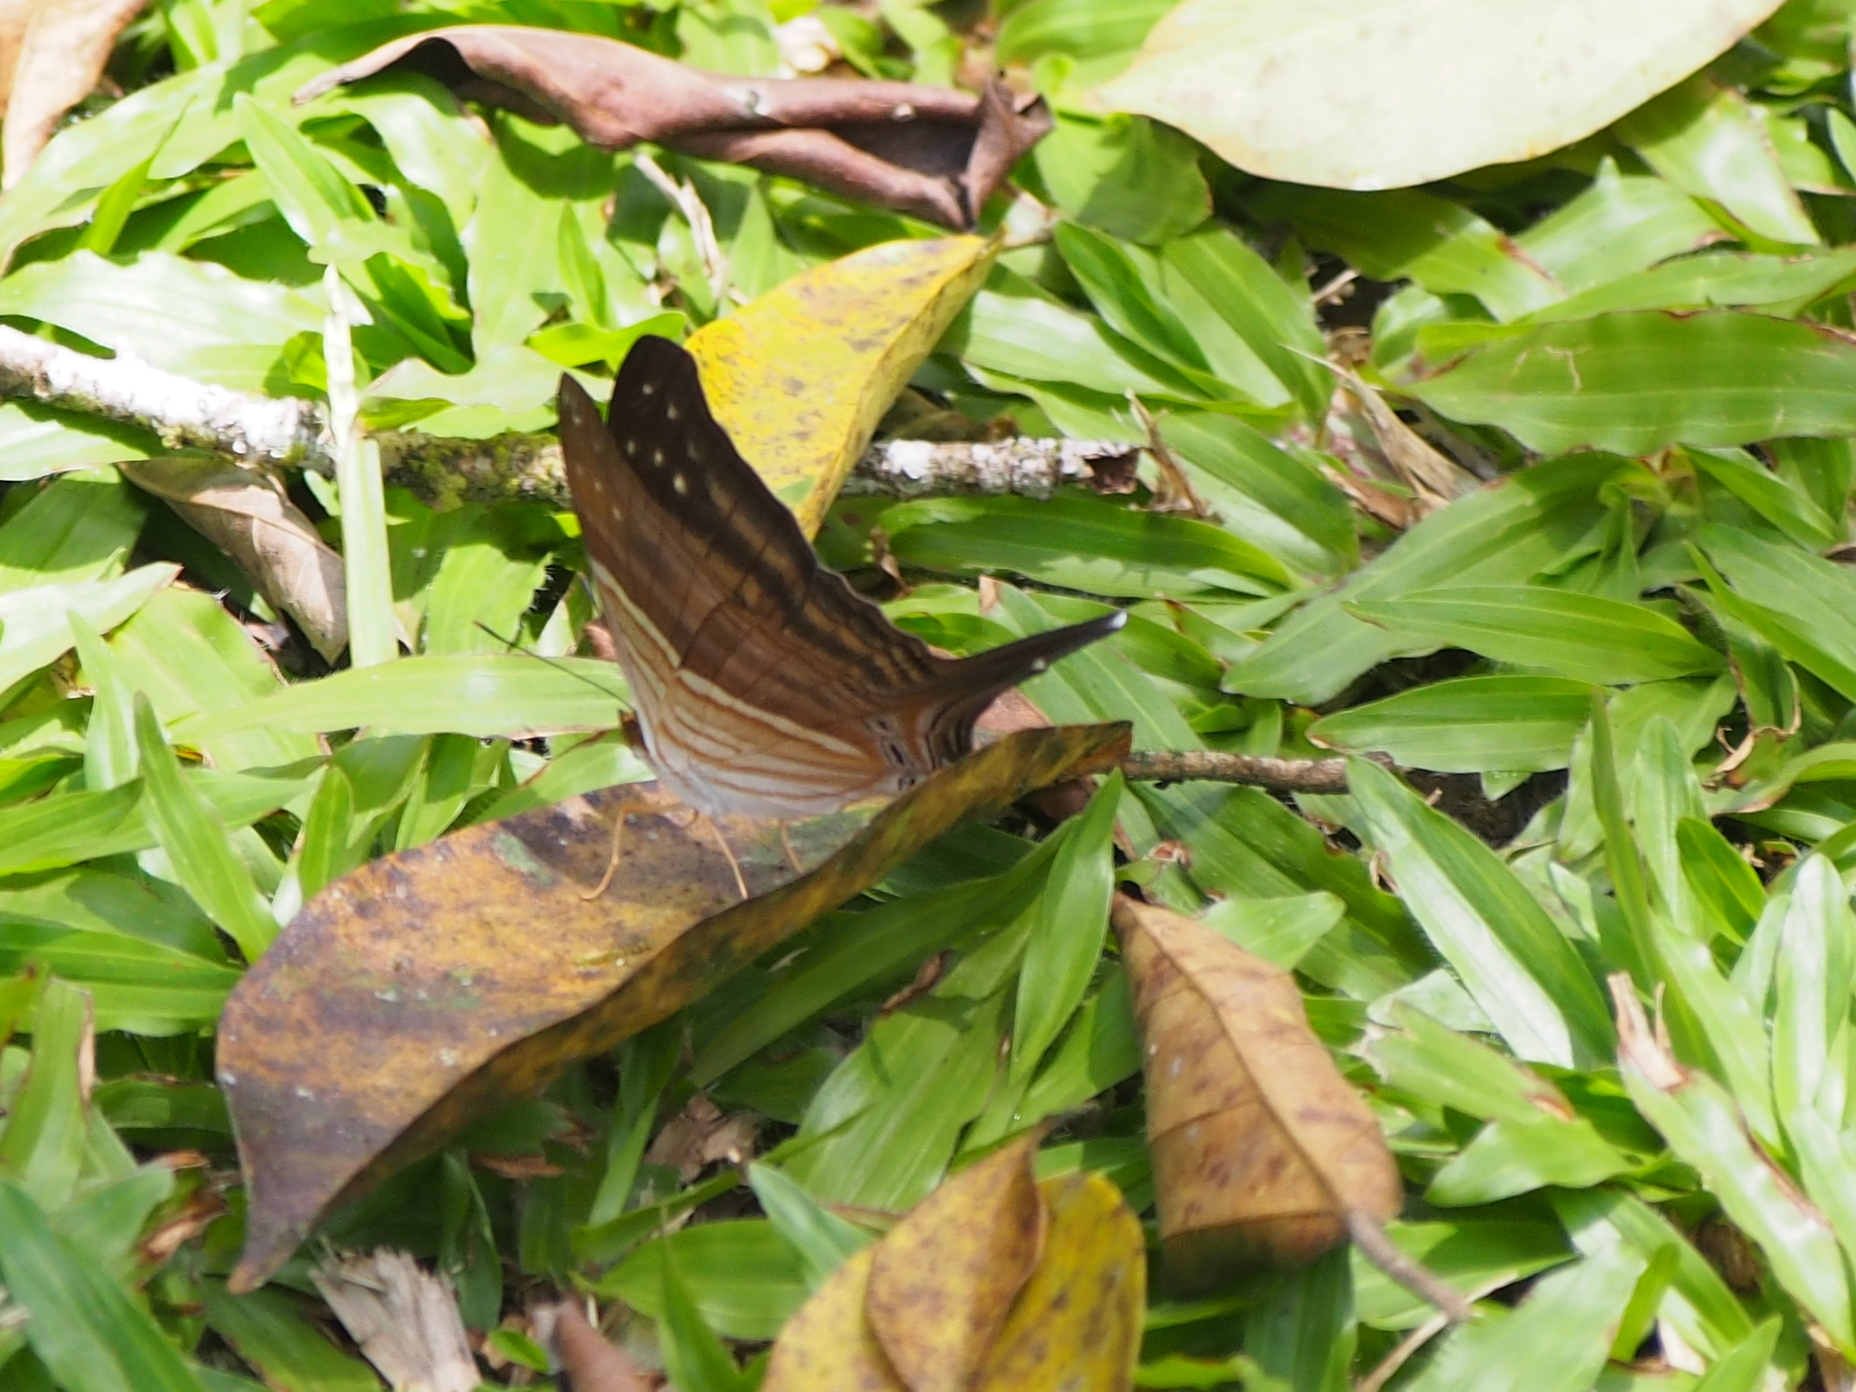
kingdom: Animalia
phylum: Arthropoda
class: Insecta
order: Lepidoptera
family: Nymphalidae
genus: Marpesia
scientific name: Marpesia chiron
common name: Many-banded daggerwing
